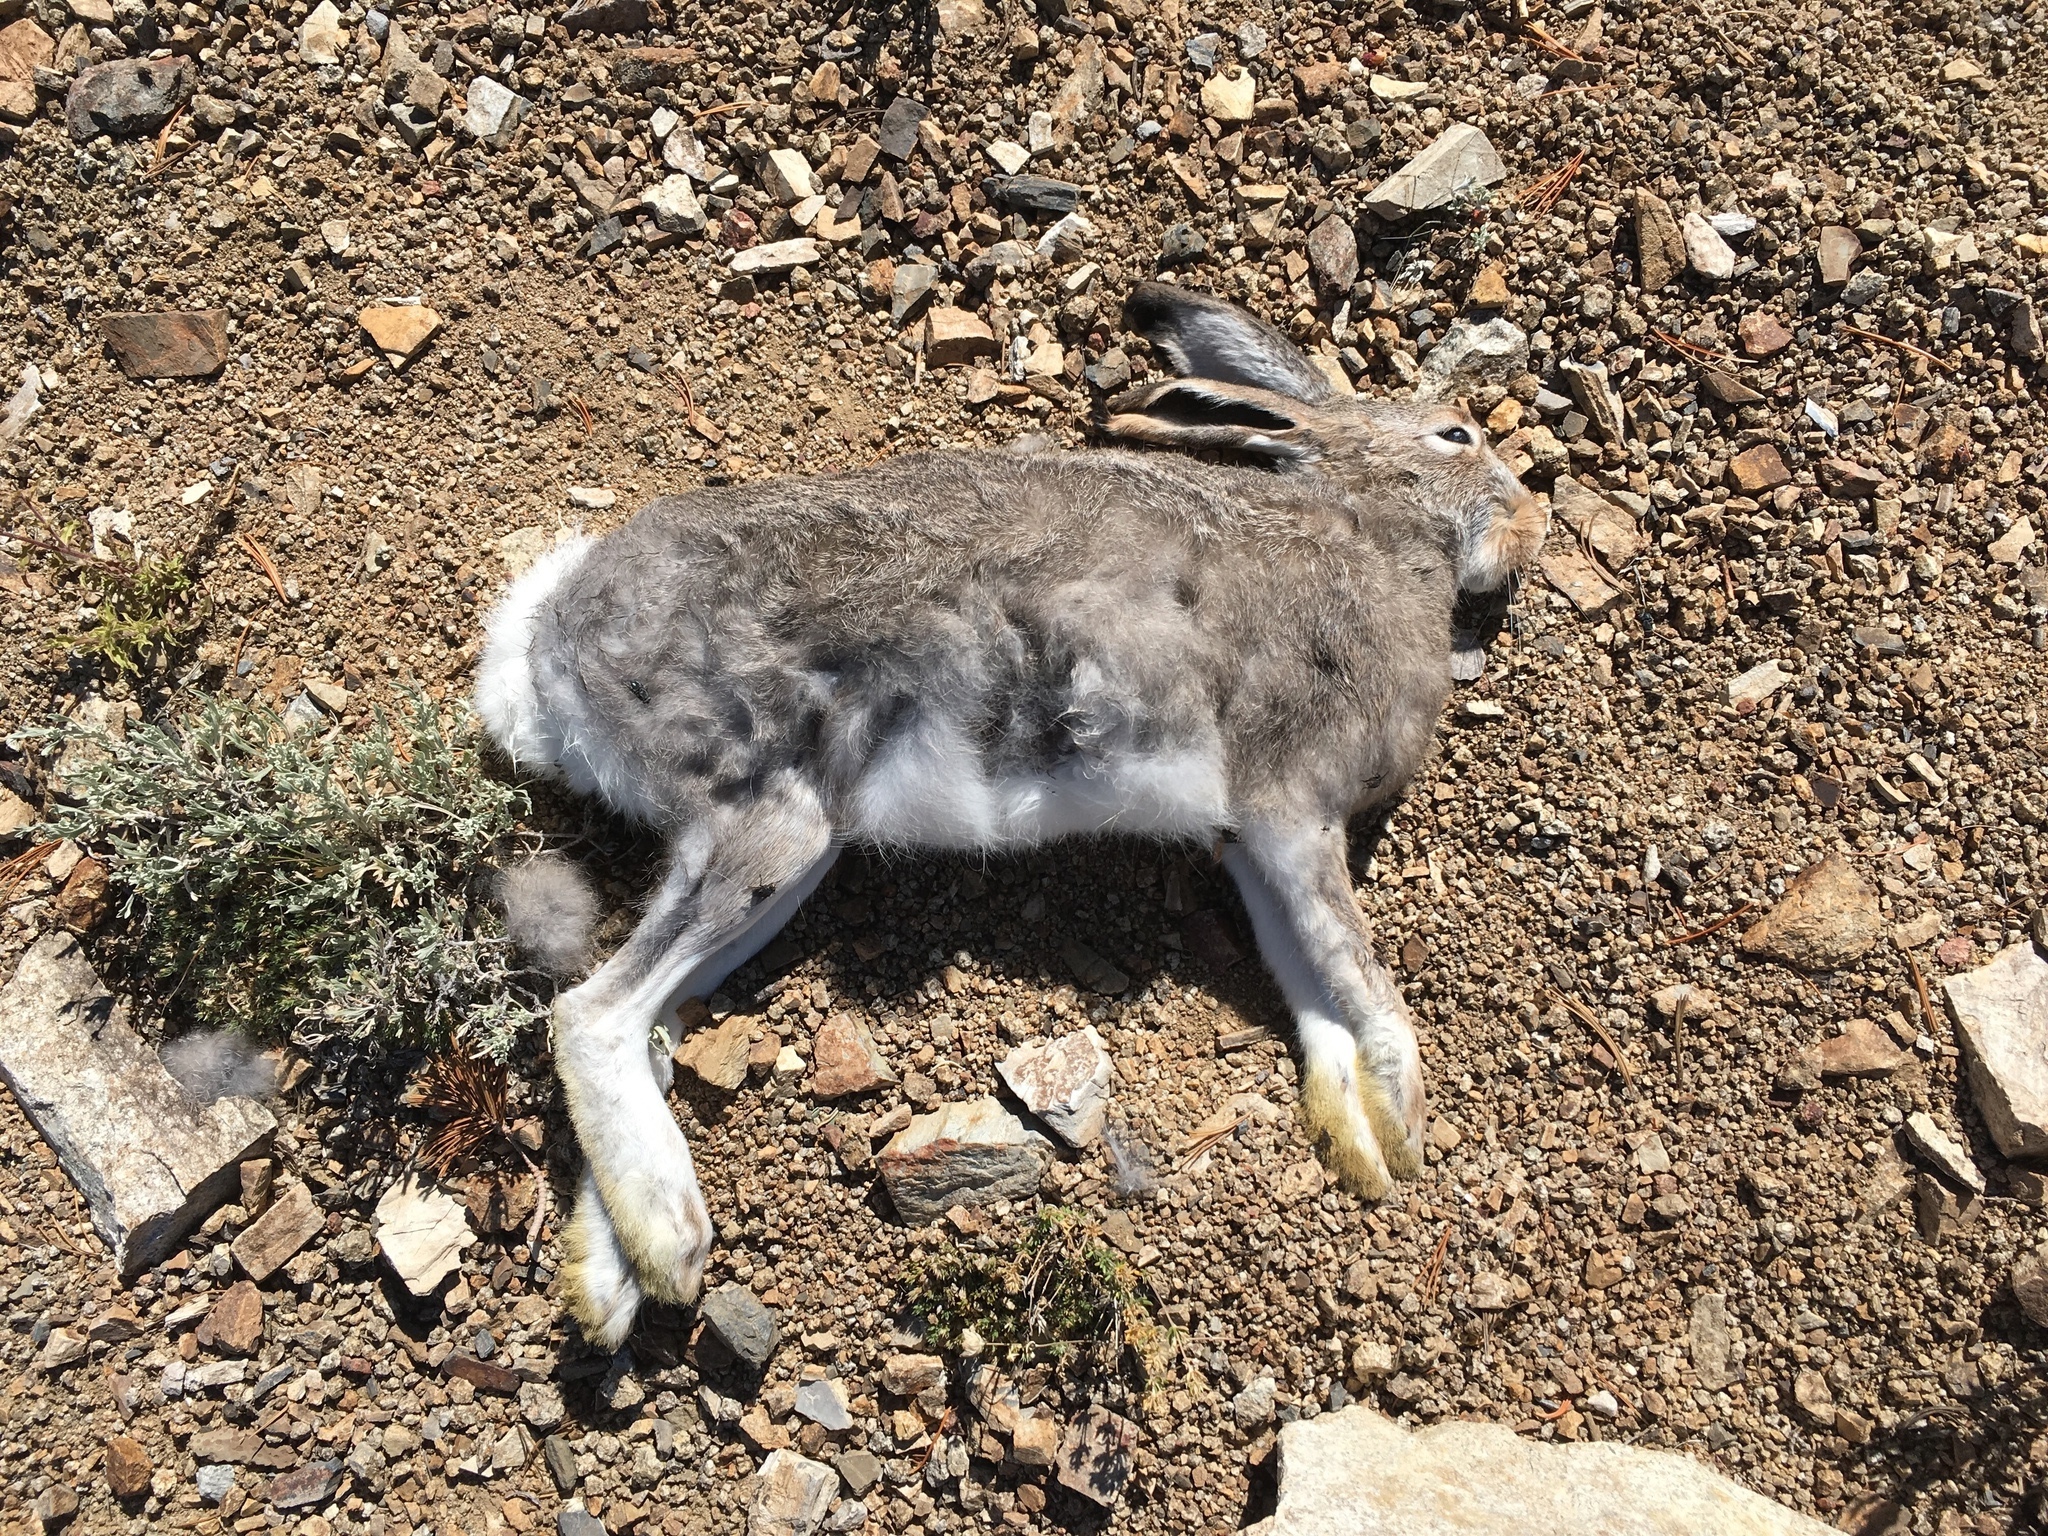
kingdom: Animalia
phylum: Chordata
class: Mammalia
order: Lagomorpha
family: Leporidae
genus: Lepus
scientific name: Lepus townsendii
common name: White-tailed jackrabbit
